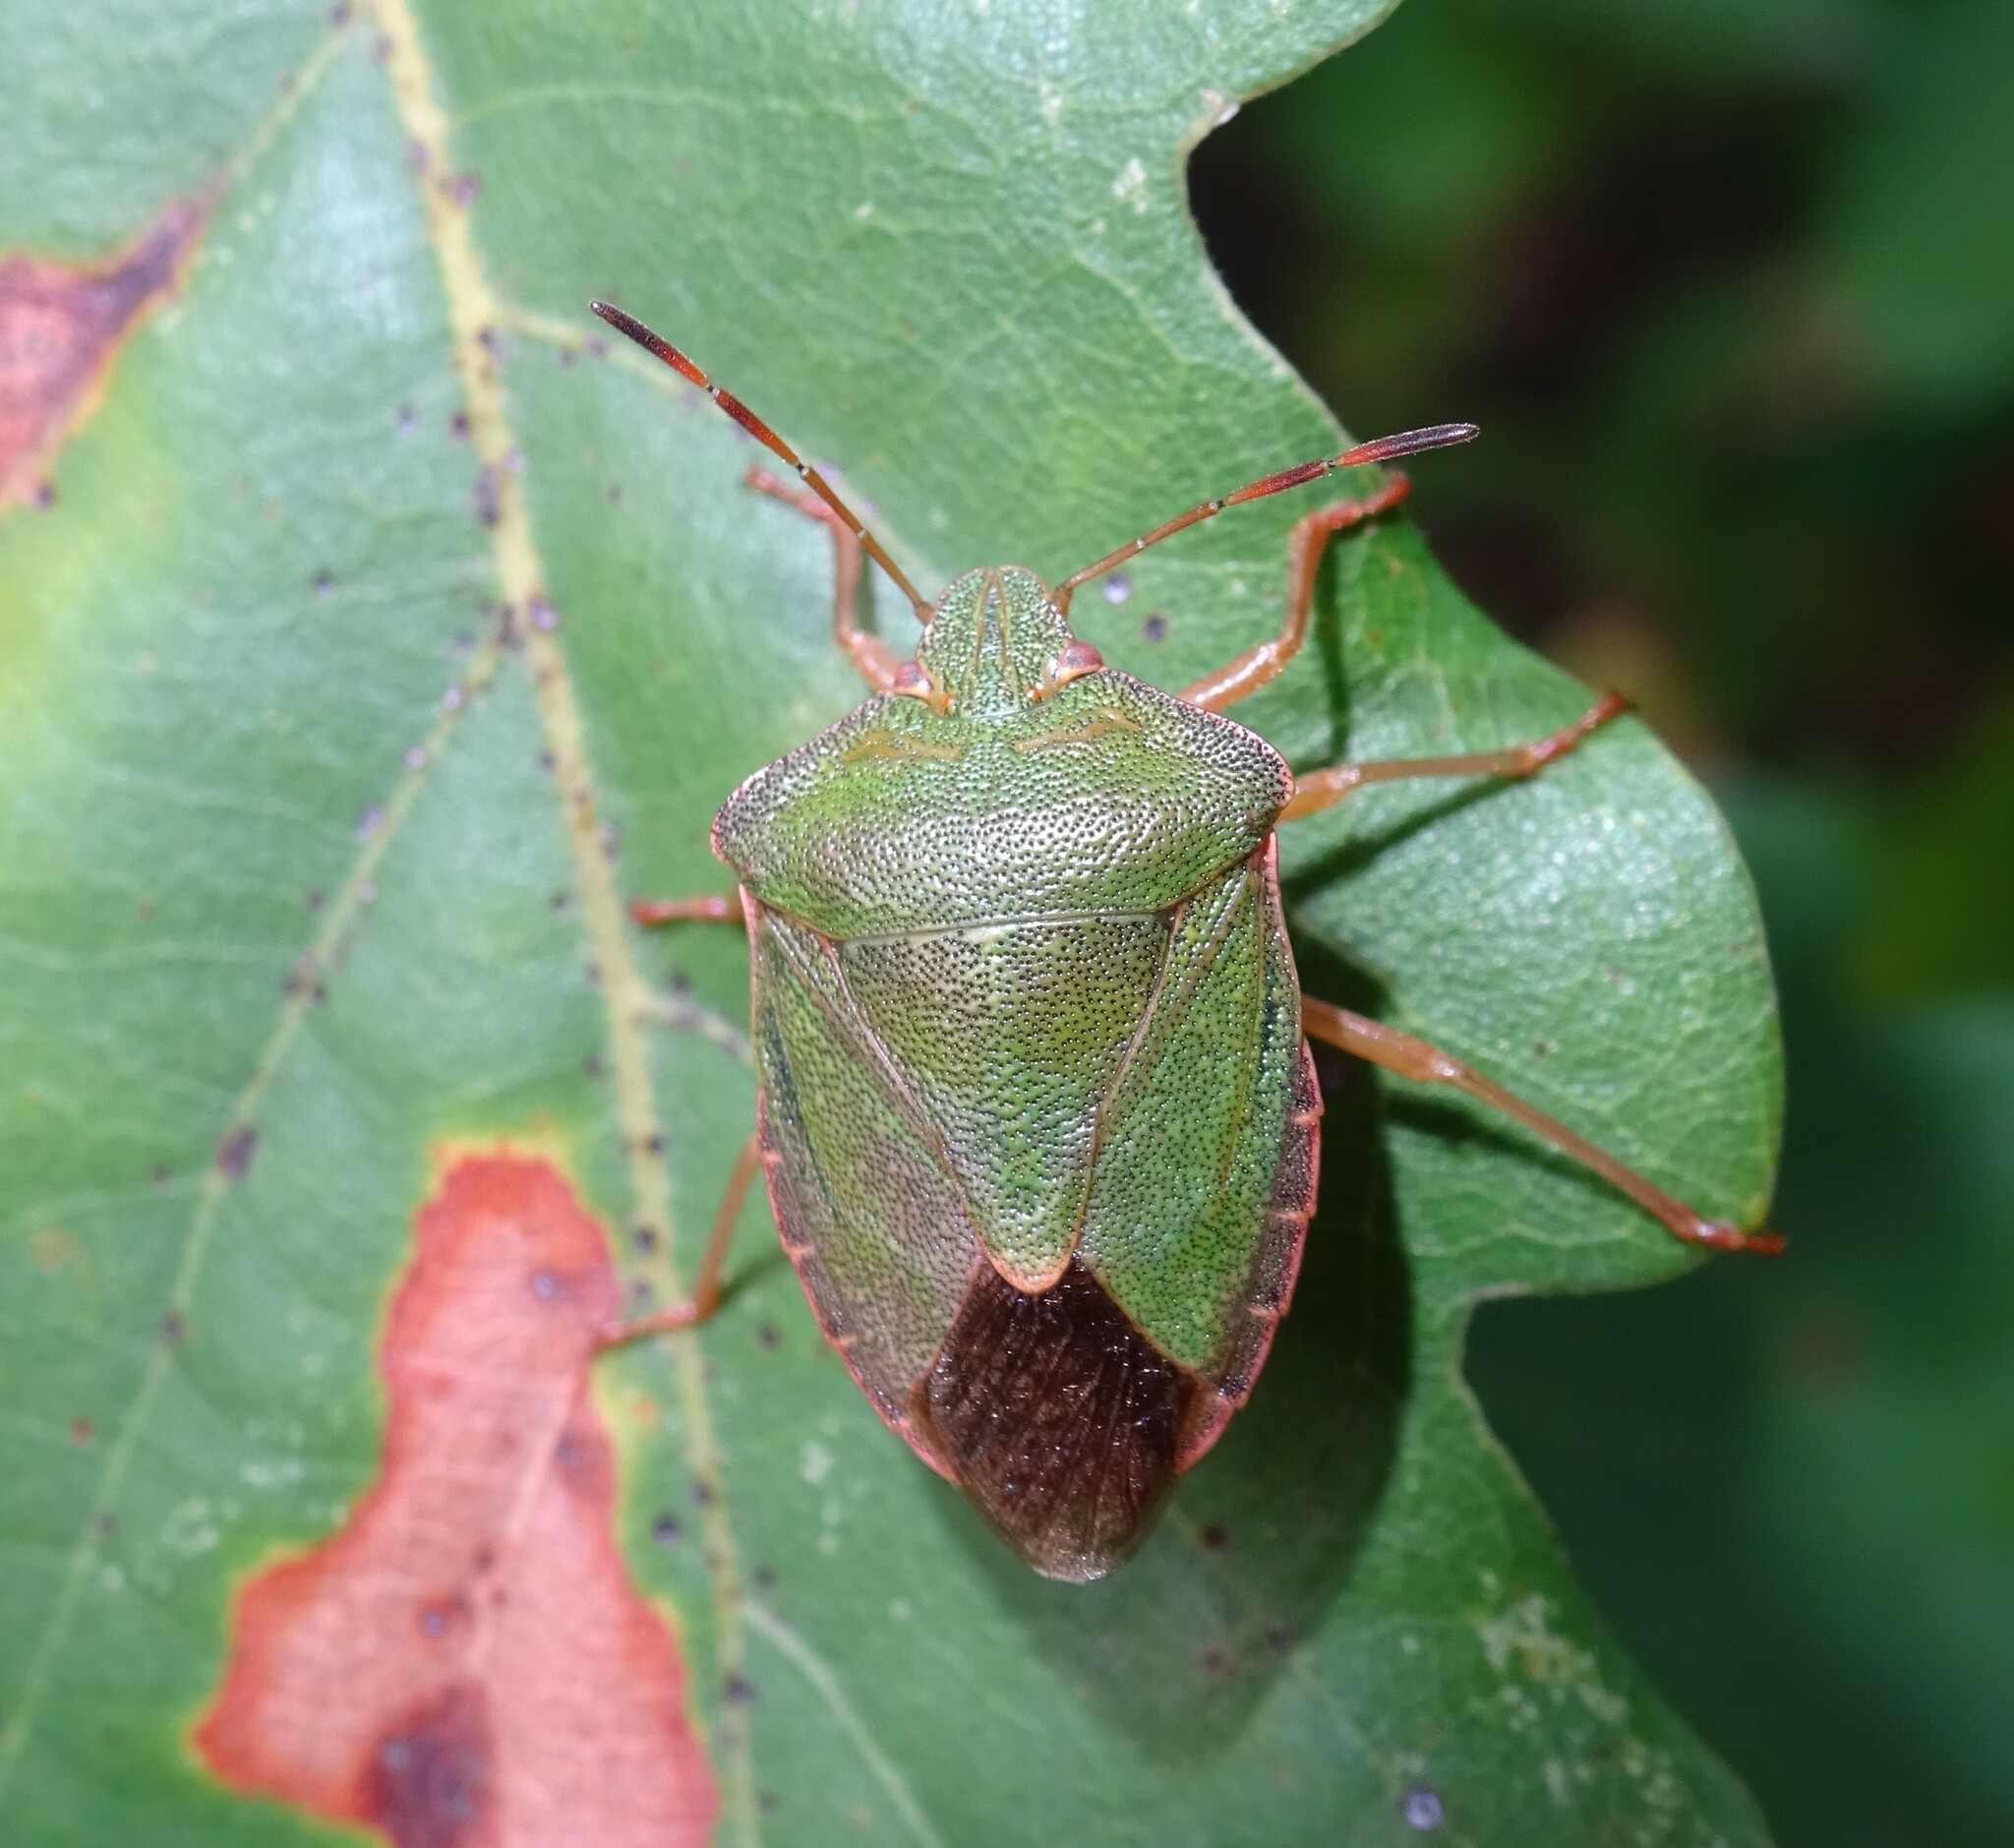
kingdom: Animalia
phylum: Arthropoda
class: Insecta
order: Hemiptera
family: Pentatomidae
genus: Palomena
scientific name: Palomena prasina
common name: Green shieldbug
